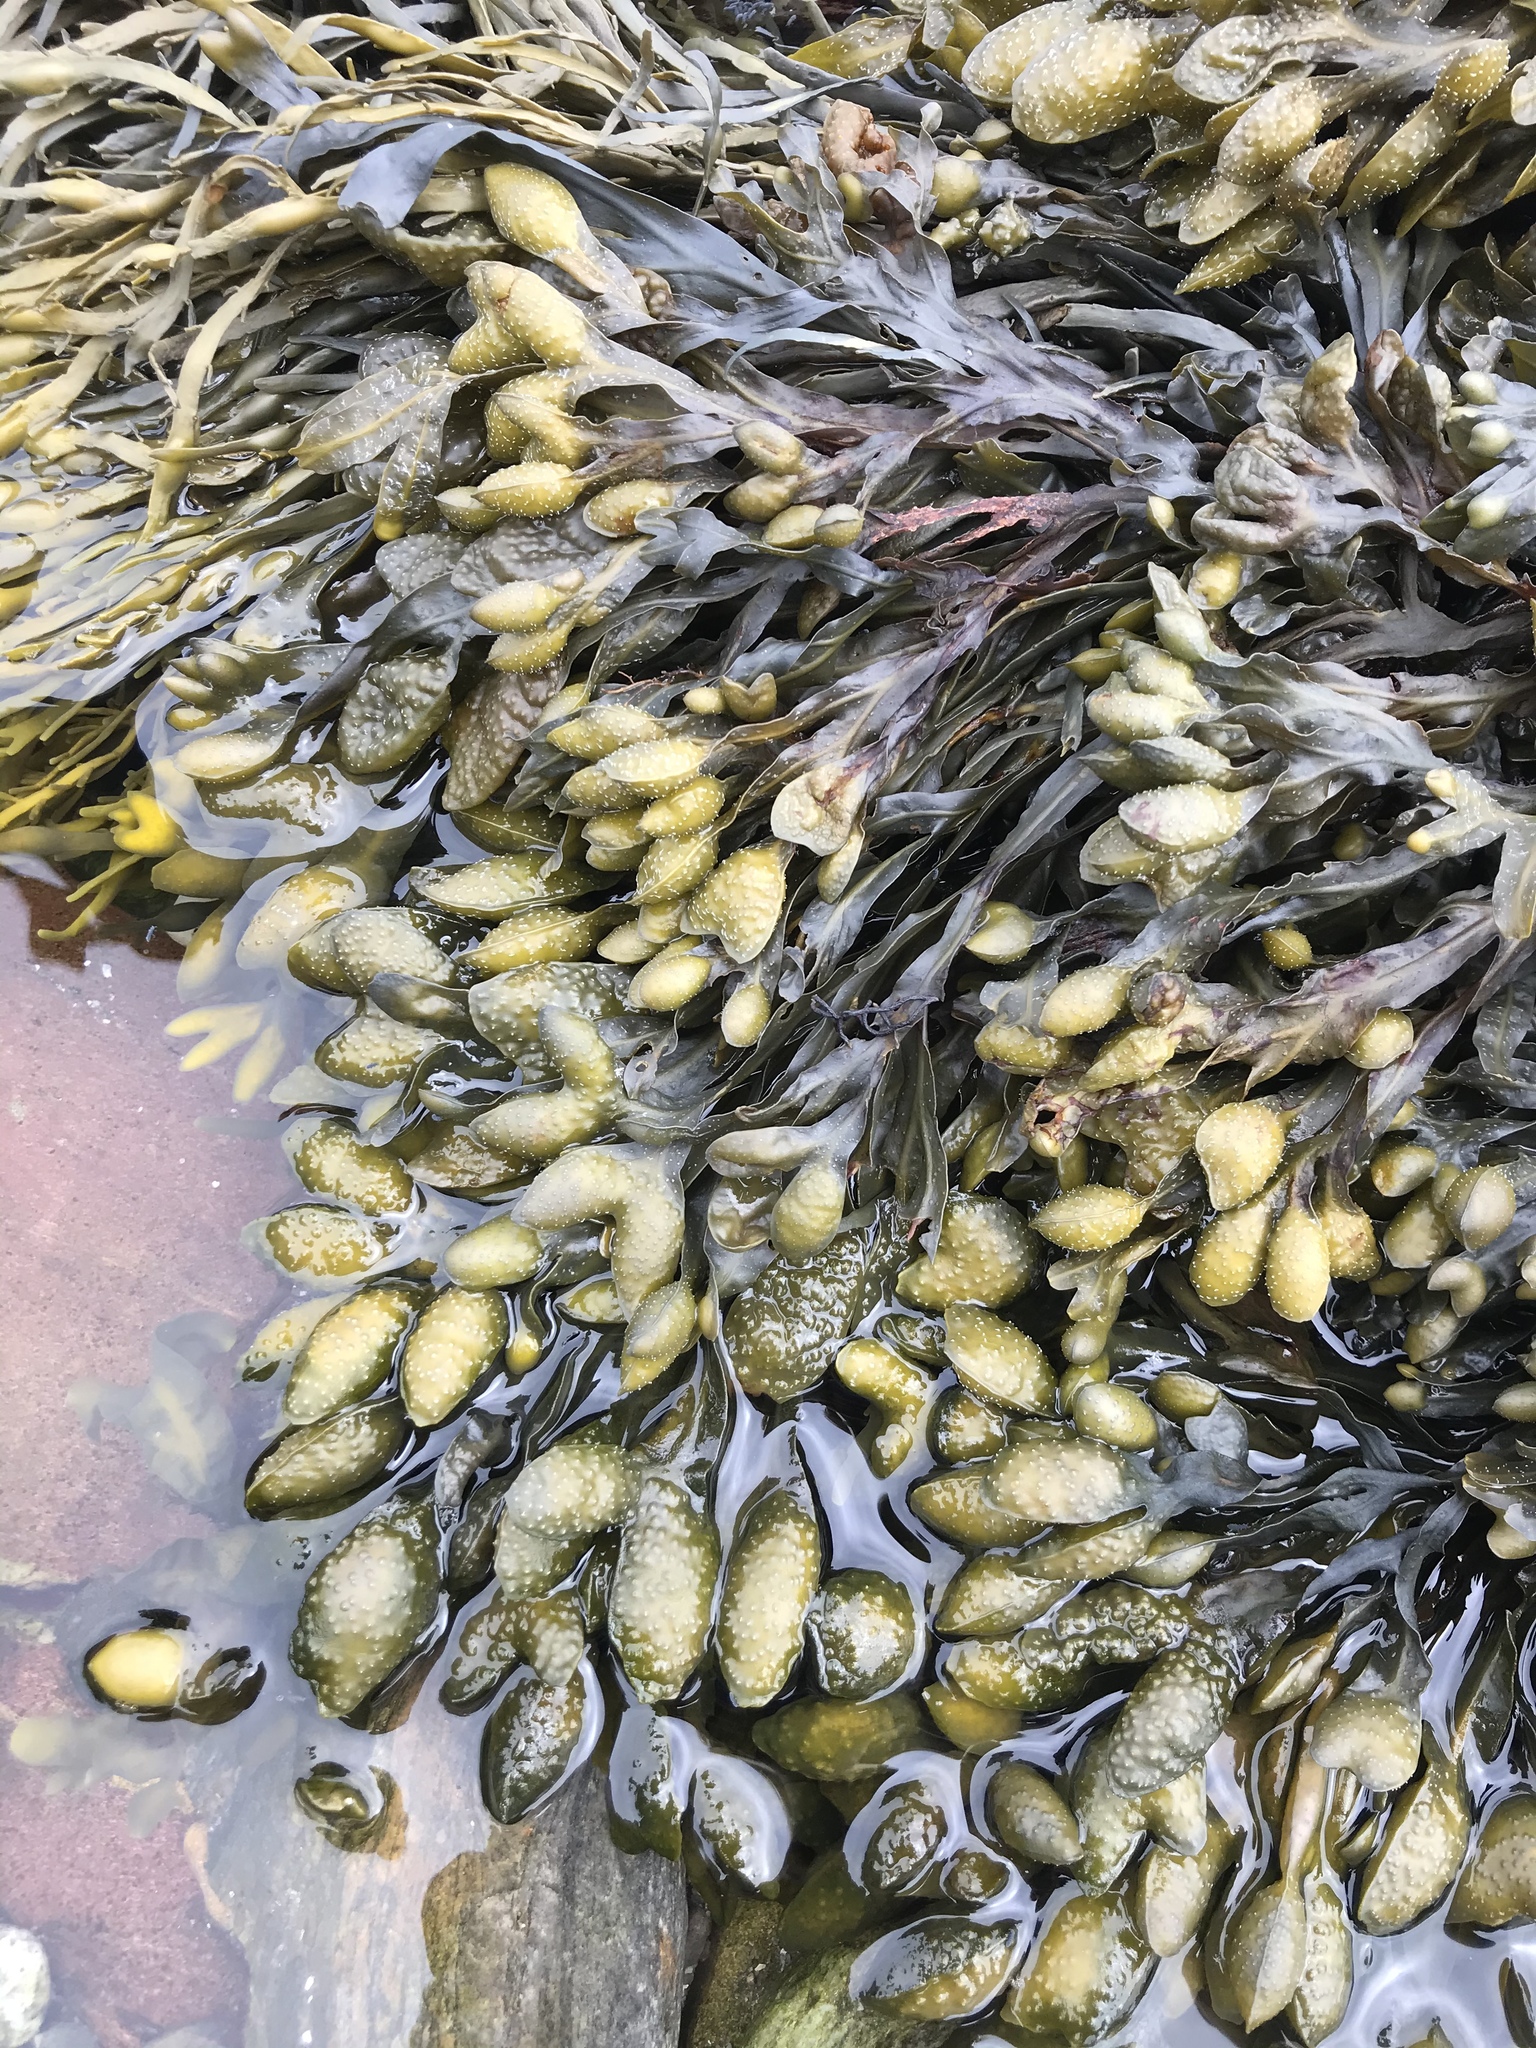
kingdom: Chromista
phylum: Ochrophyta
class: Phaeophyceae
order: Fucales
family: Fucaceae
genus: Fucus
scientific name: Fucus spiralis
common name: Spiral wrack
